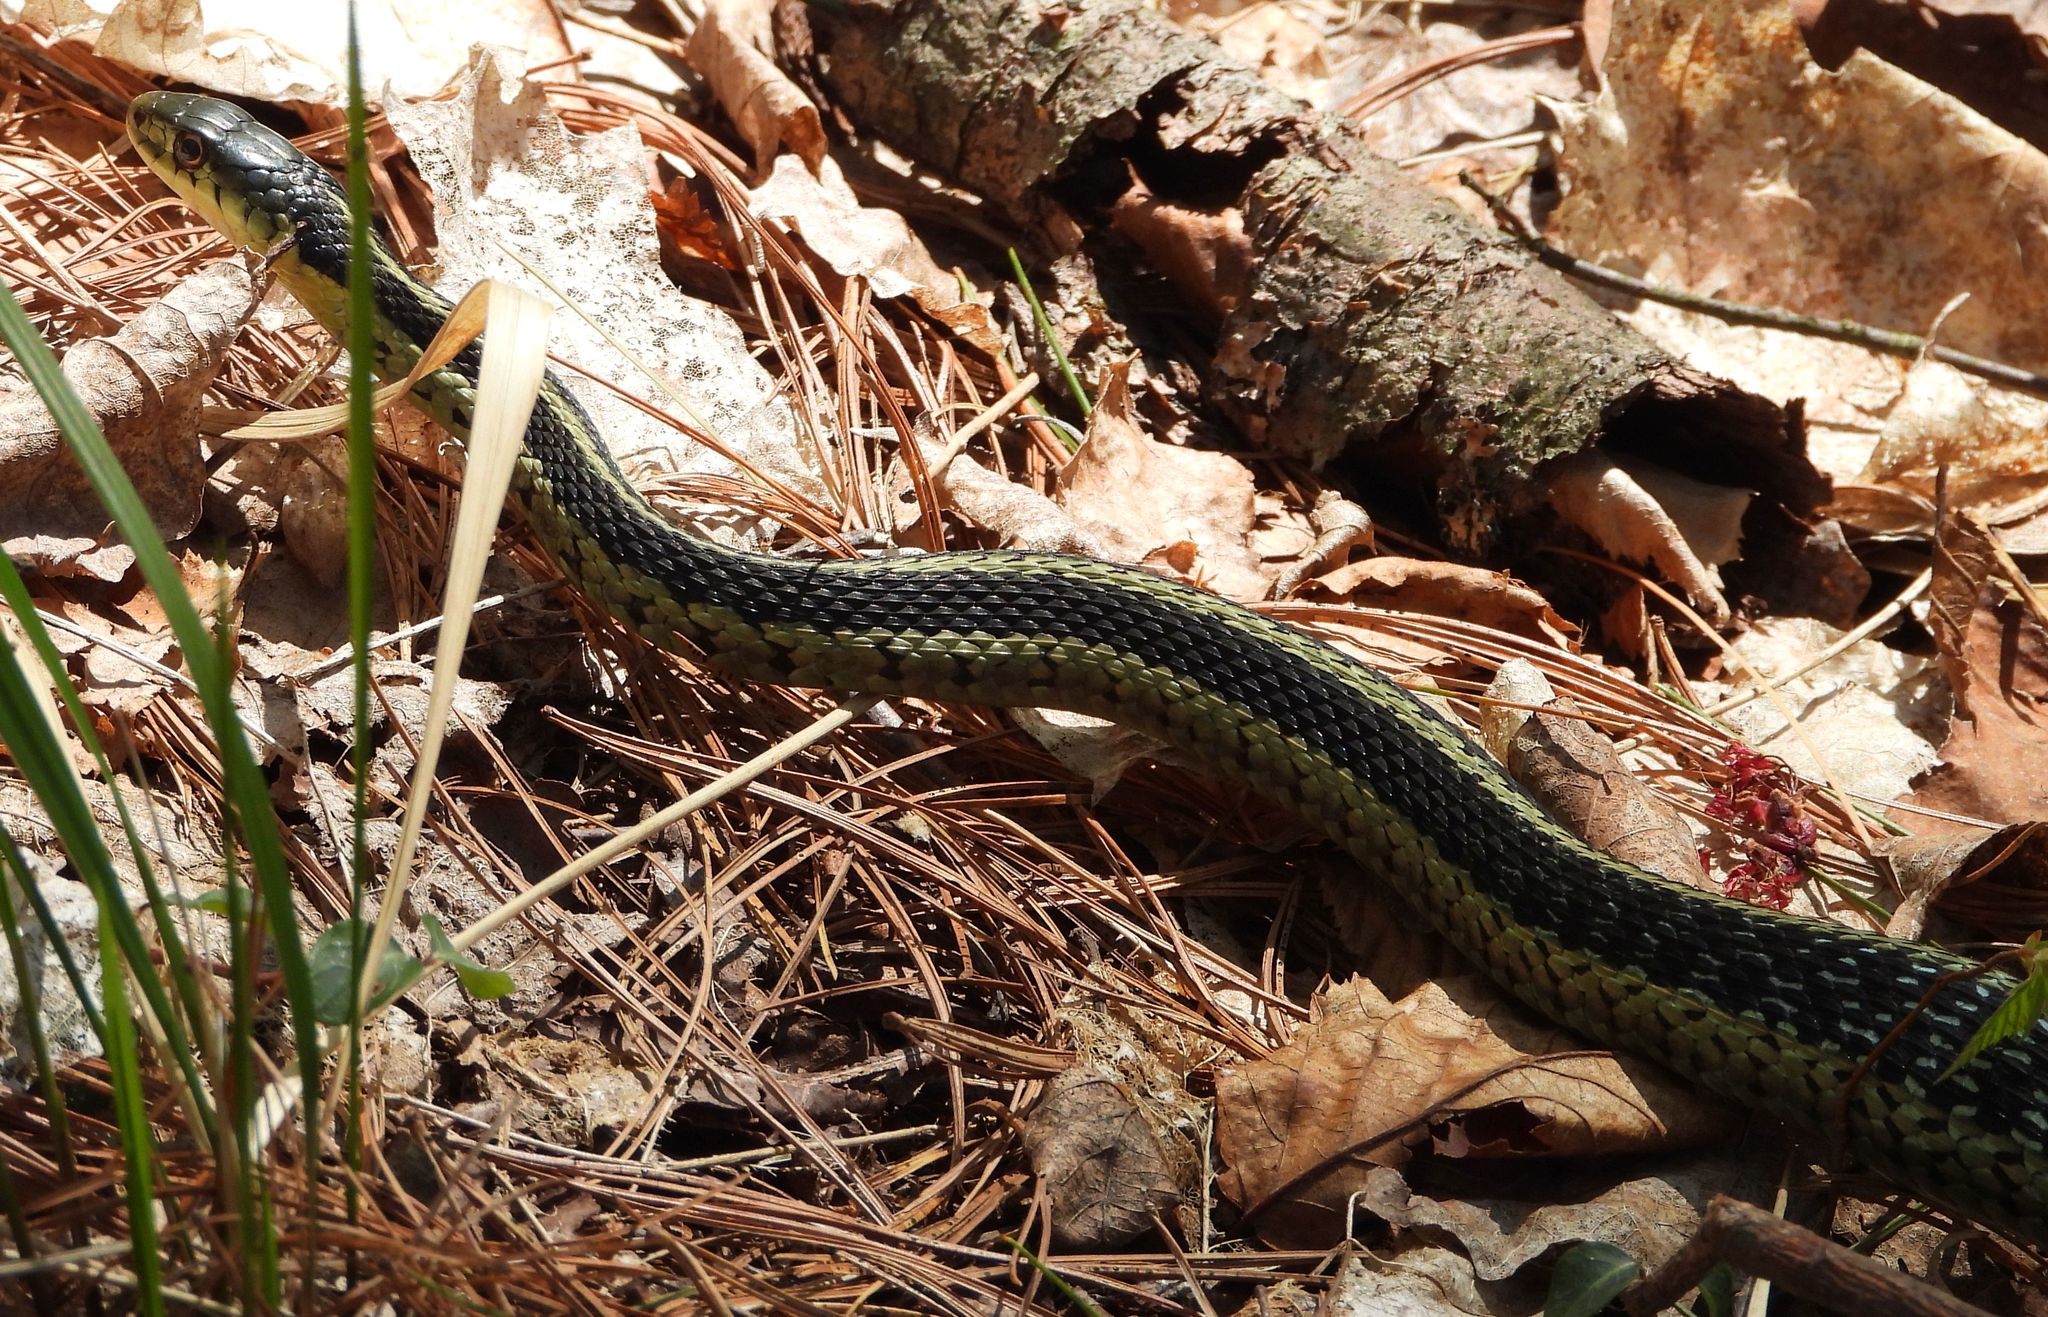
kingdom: Animalia
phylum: Chordata
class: Squamata
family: Colubridae
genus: Thamnophis
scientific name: Thamnophis sirtalis
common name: Common garter snake
